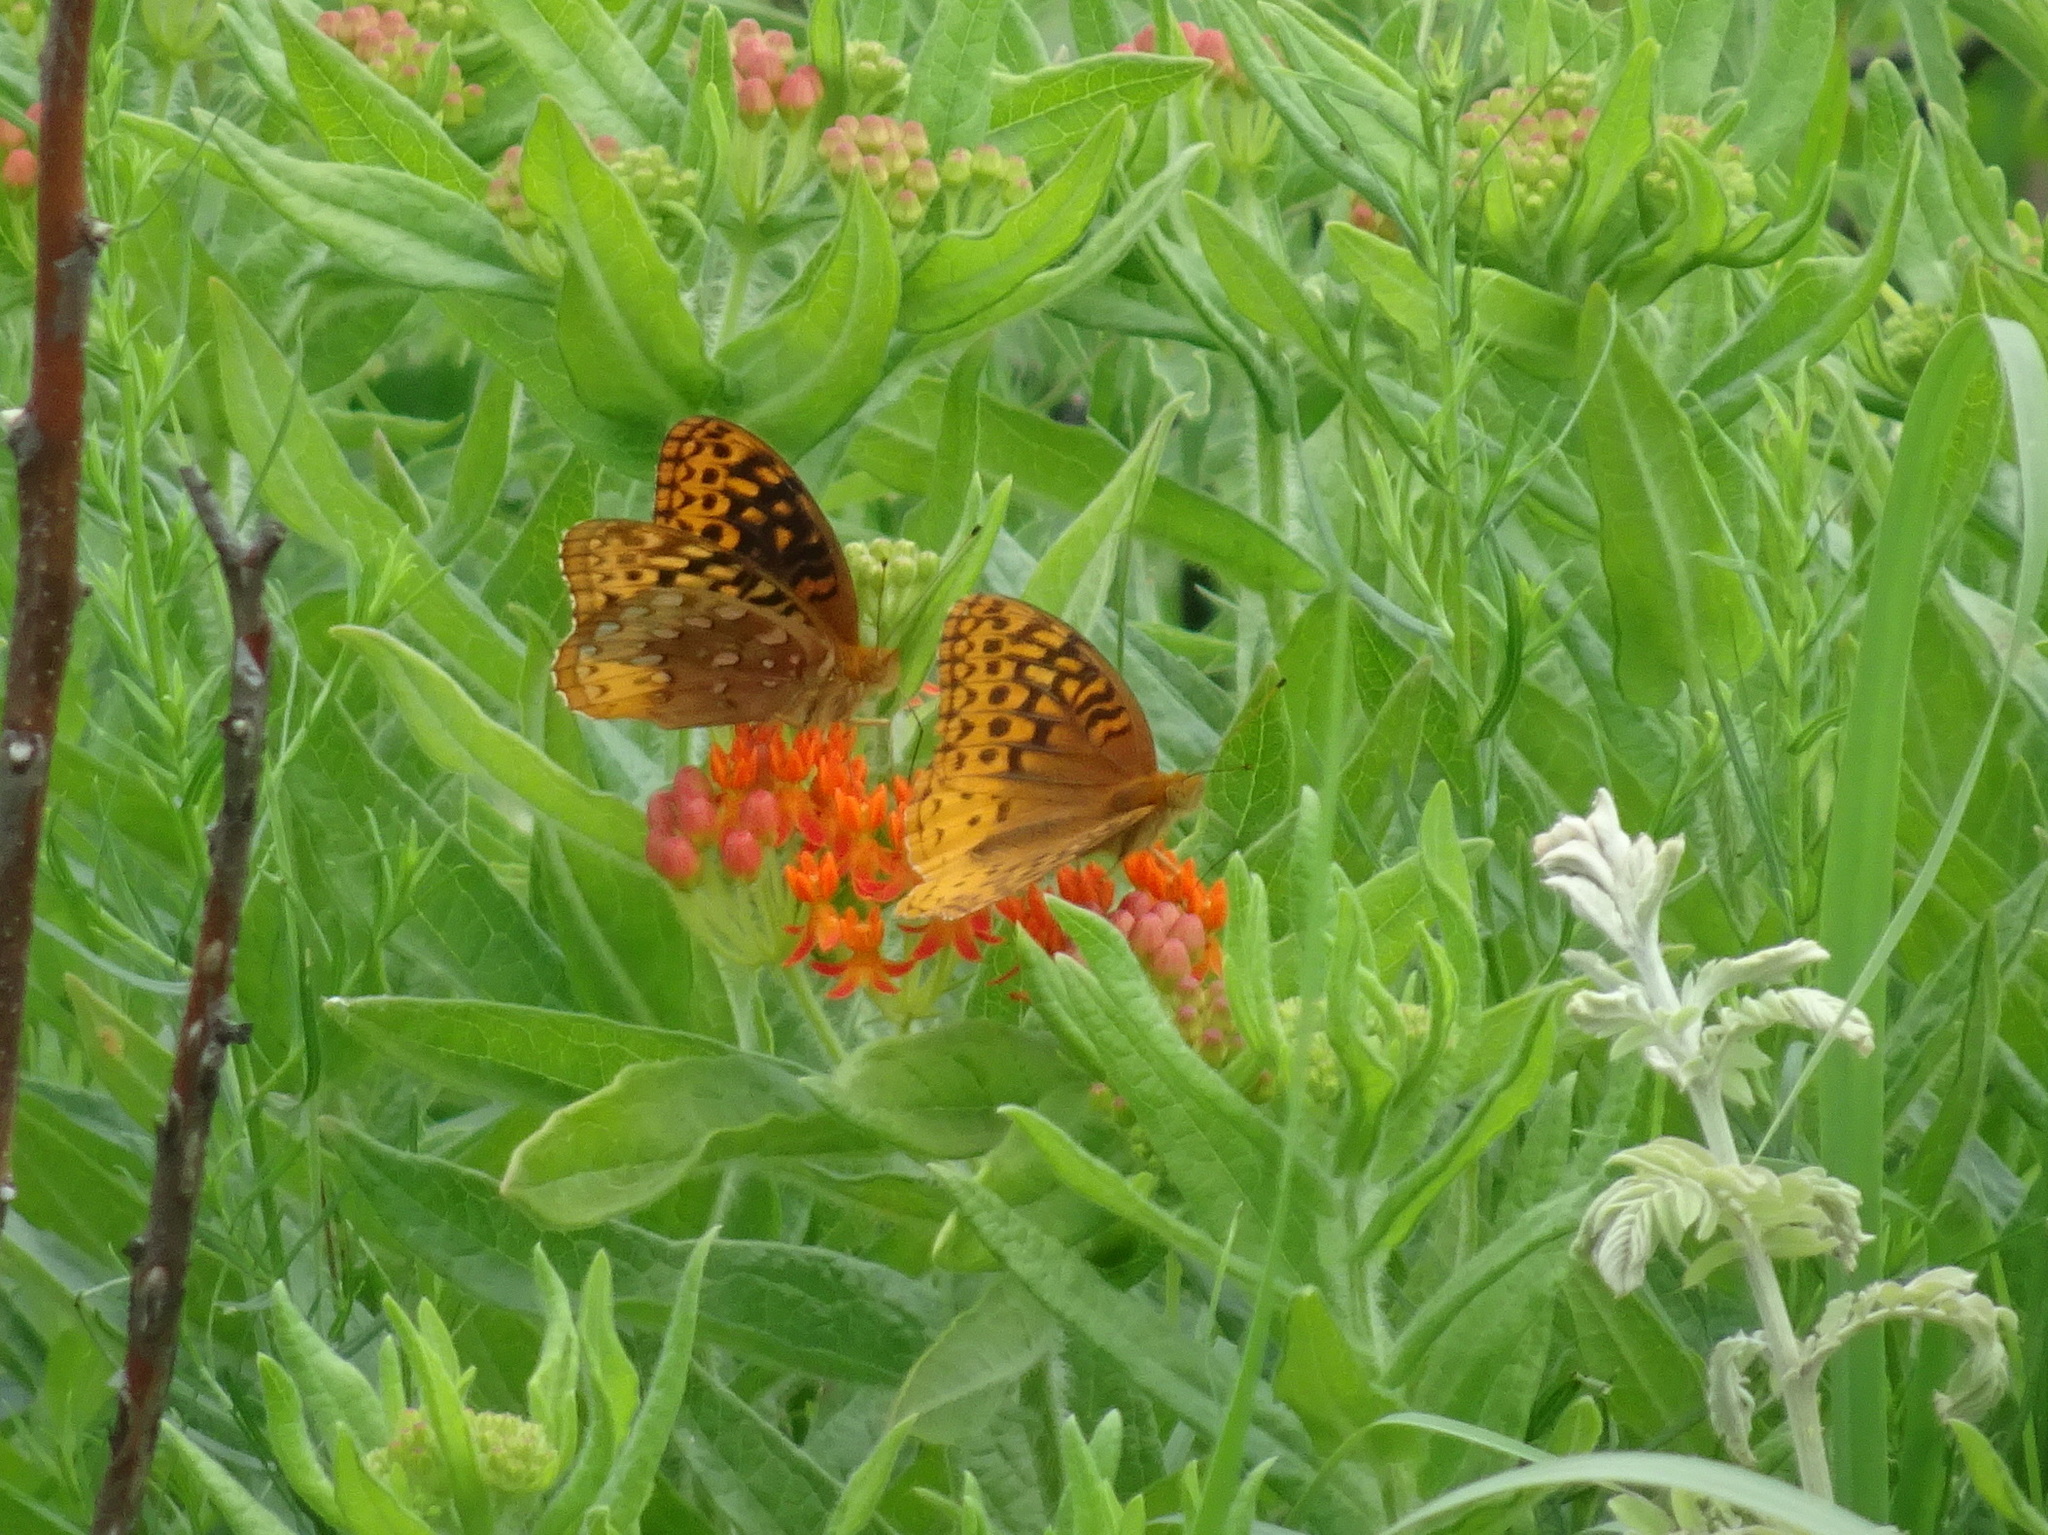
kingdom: Animalia
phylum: Arthropoda
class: Insecta
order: Lepidoptera
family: Nymphalidae
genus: Speyeria
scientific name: Speyeria cybele
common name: Great spangled fritillary
